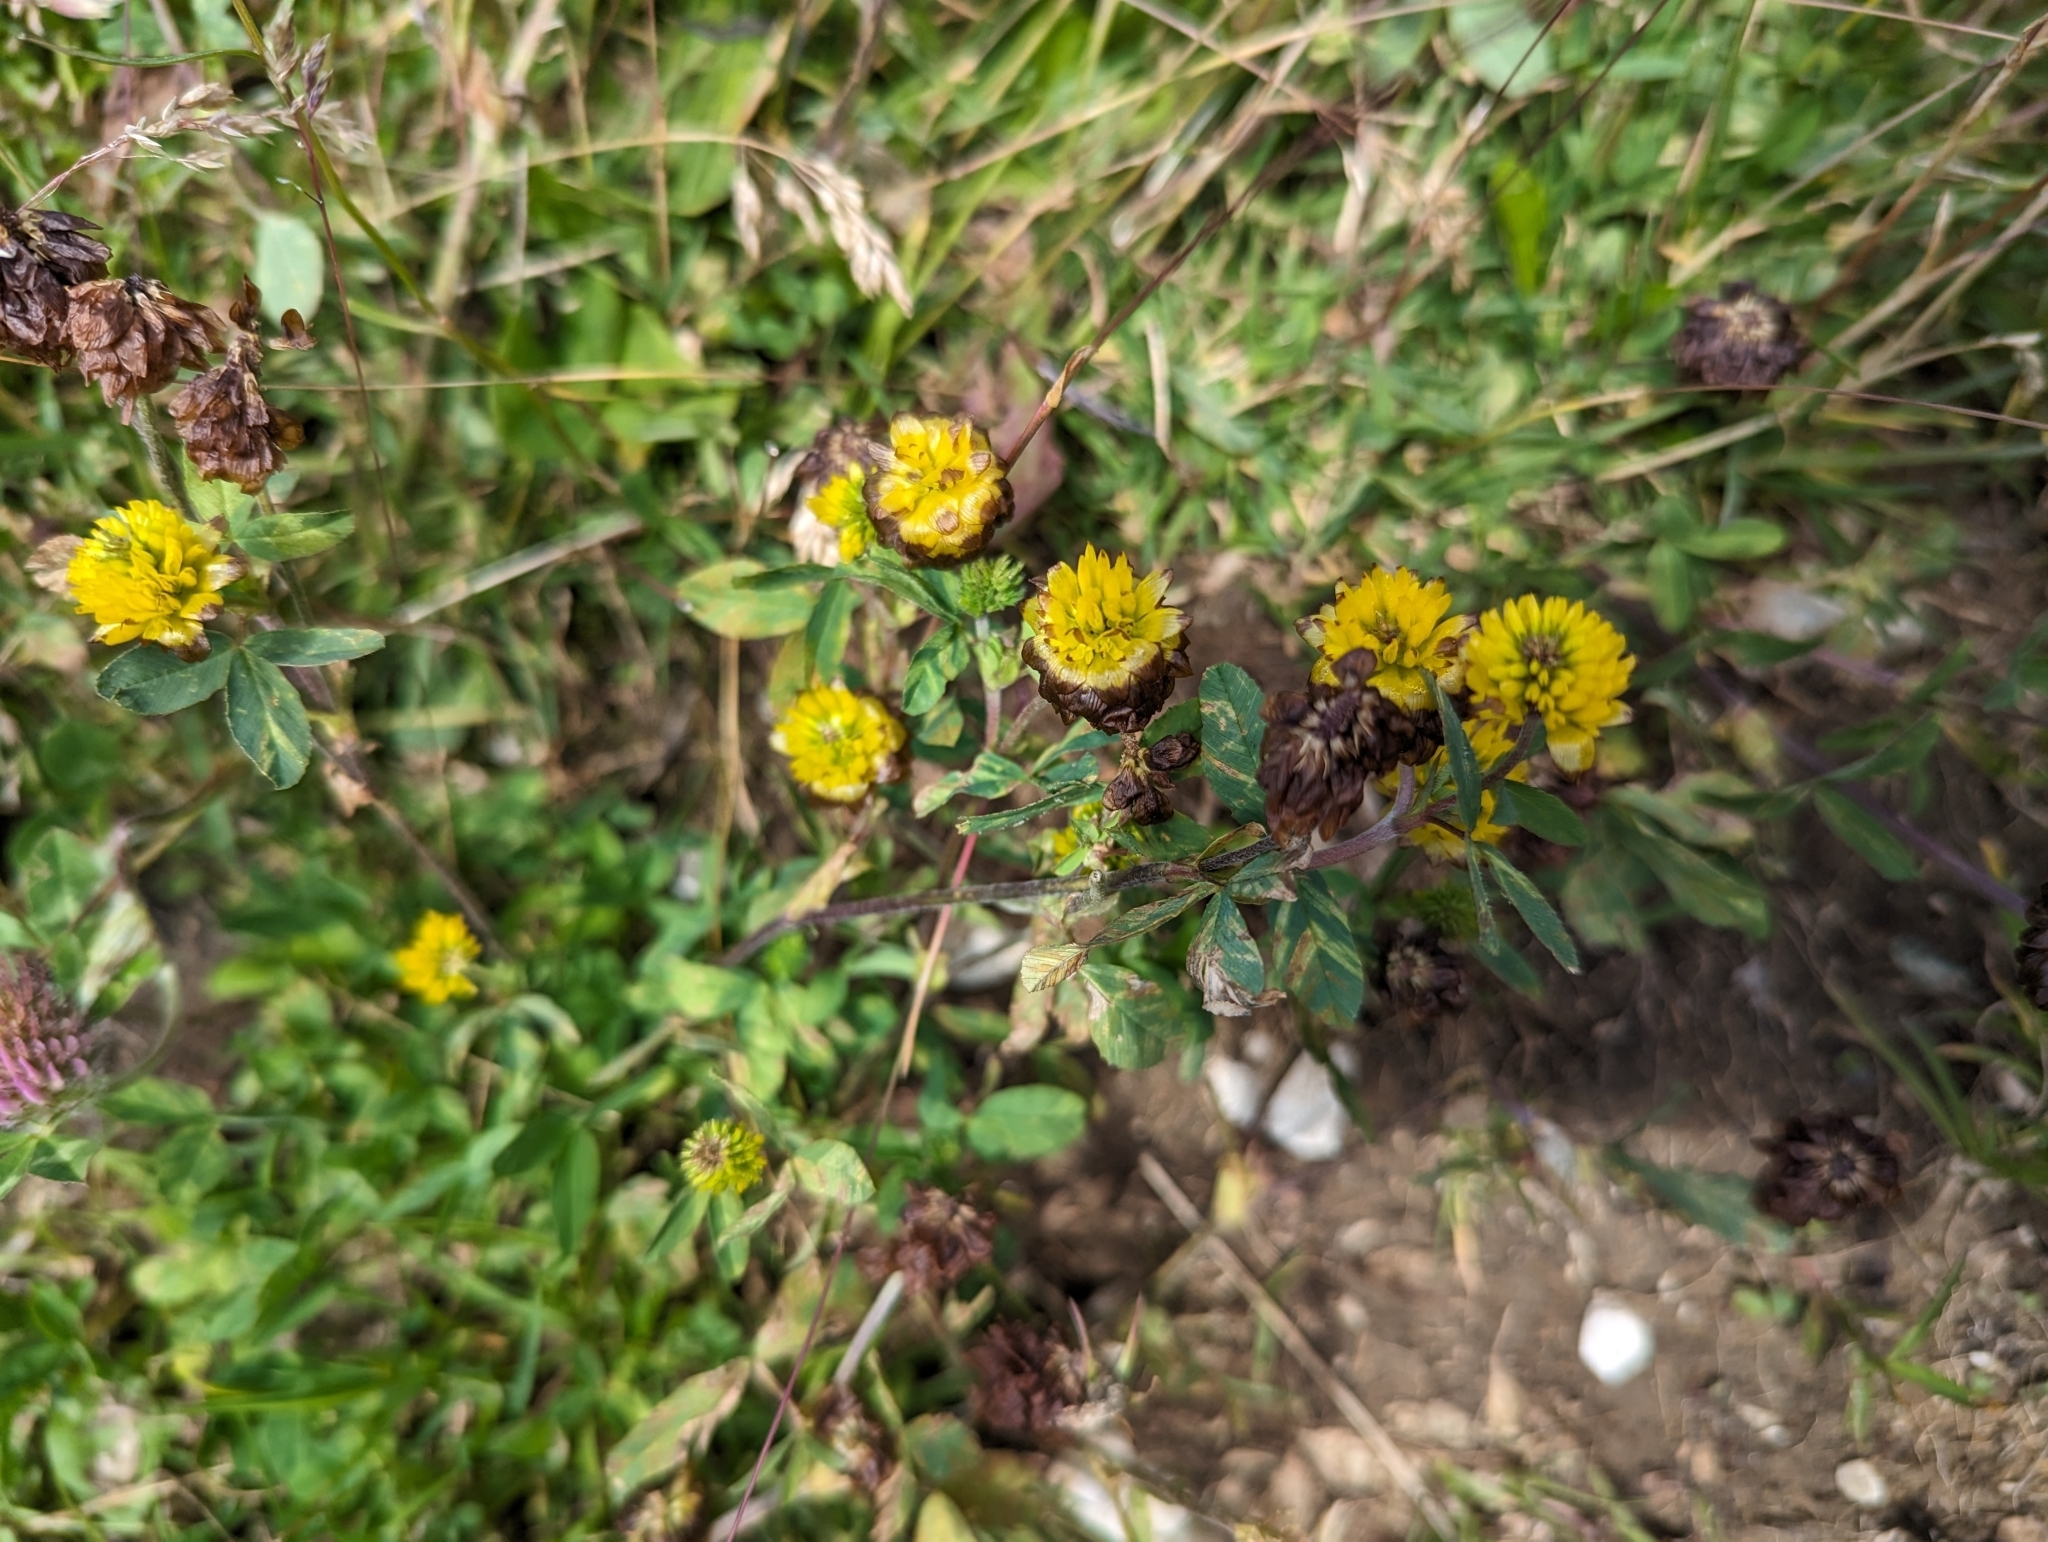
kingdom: Plantae
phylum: Tracheophyta
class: Magnoliopsida
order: Fabales
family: Fabaceae
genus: Trifolium
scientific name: Trifolium badium
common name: Brown clover
